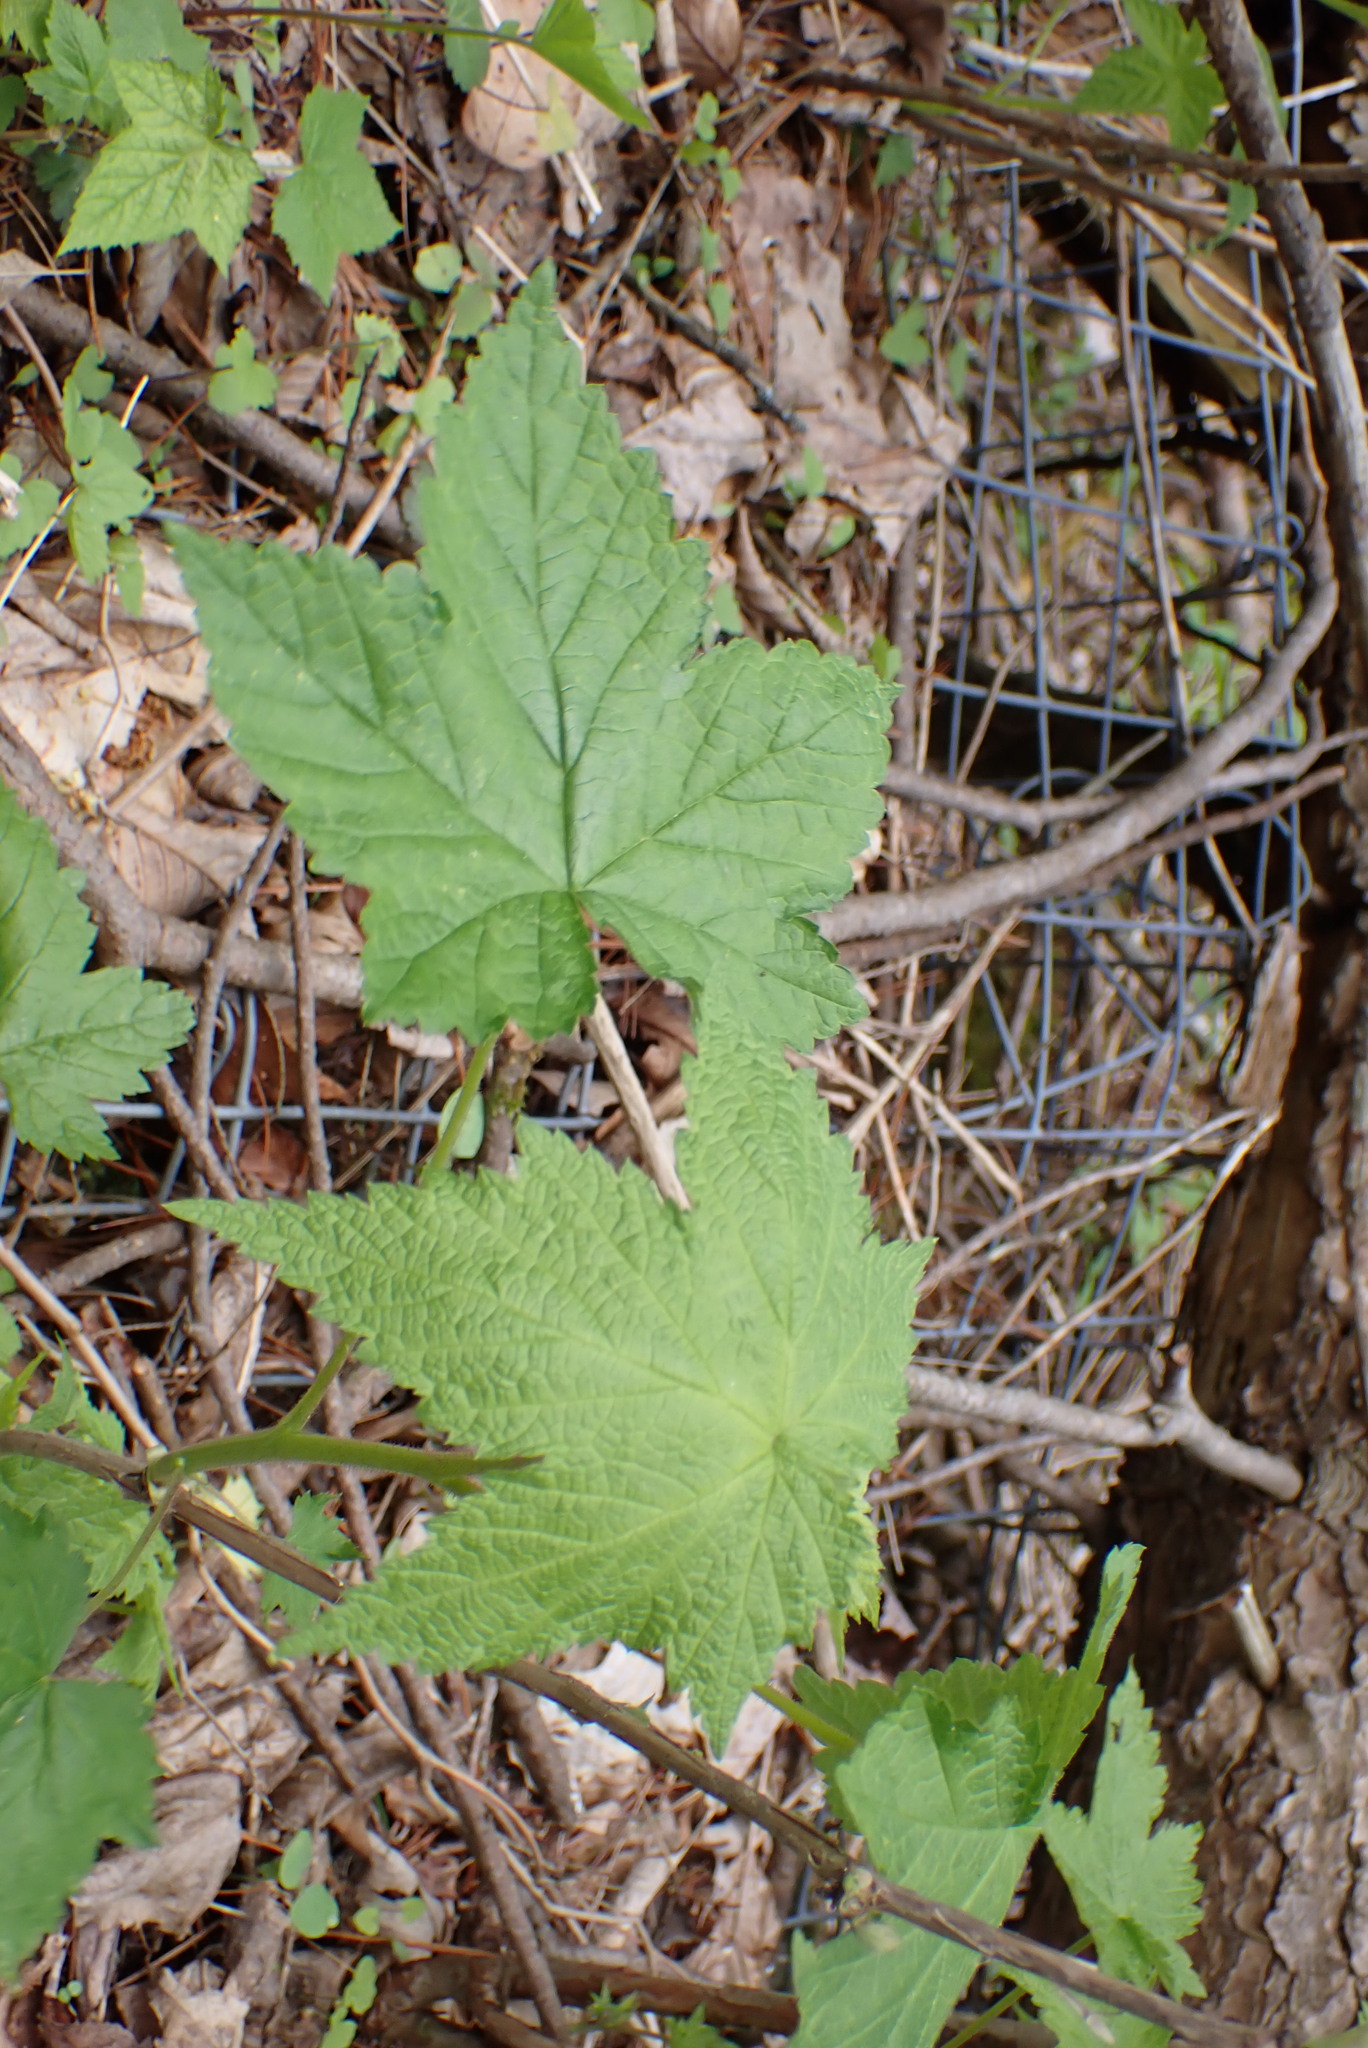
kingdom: Plantae
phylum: Tracheophyta
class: Magnoliopsida
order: Rosales
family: Rosaceae
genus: Rubus
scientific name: Rubus odoratus
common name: Purple-flowered raspberry
